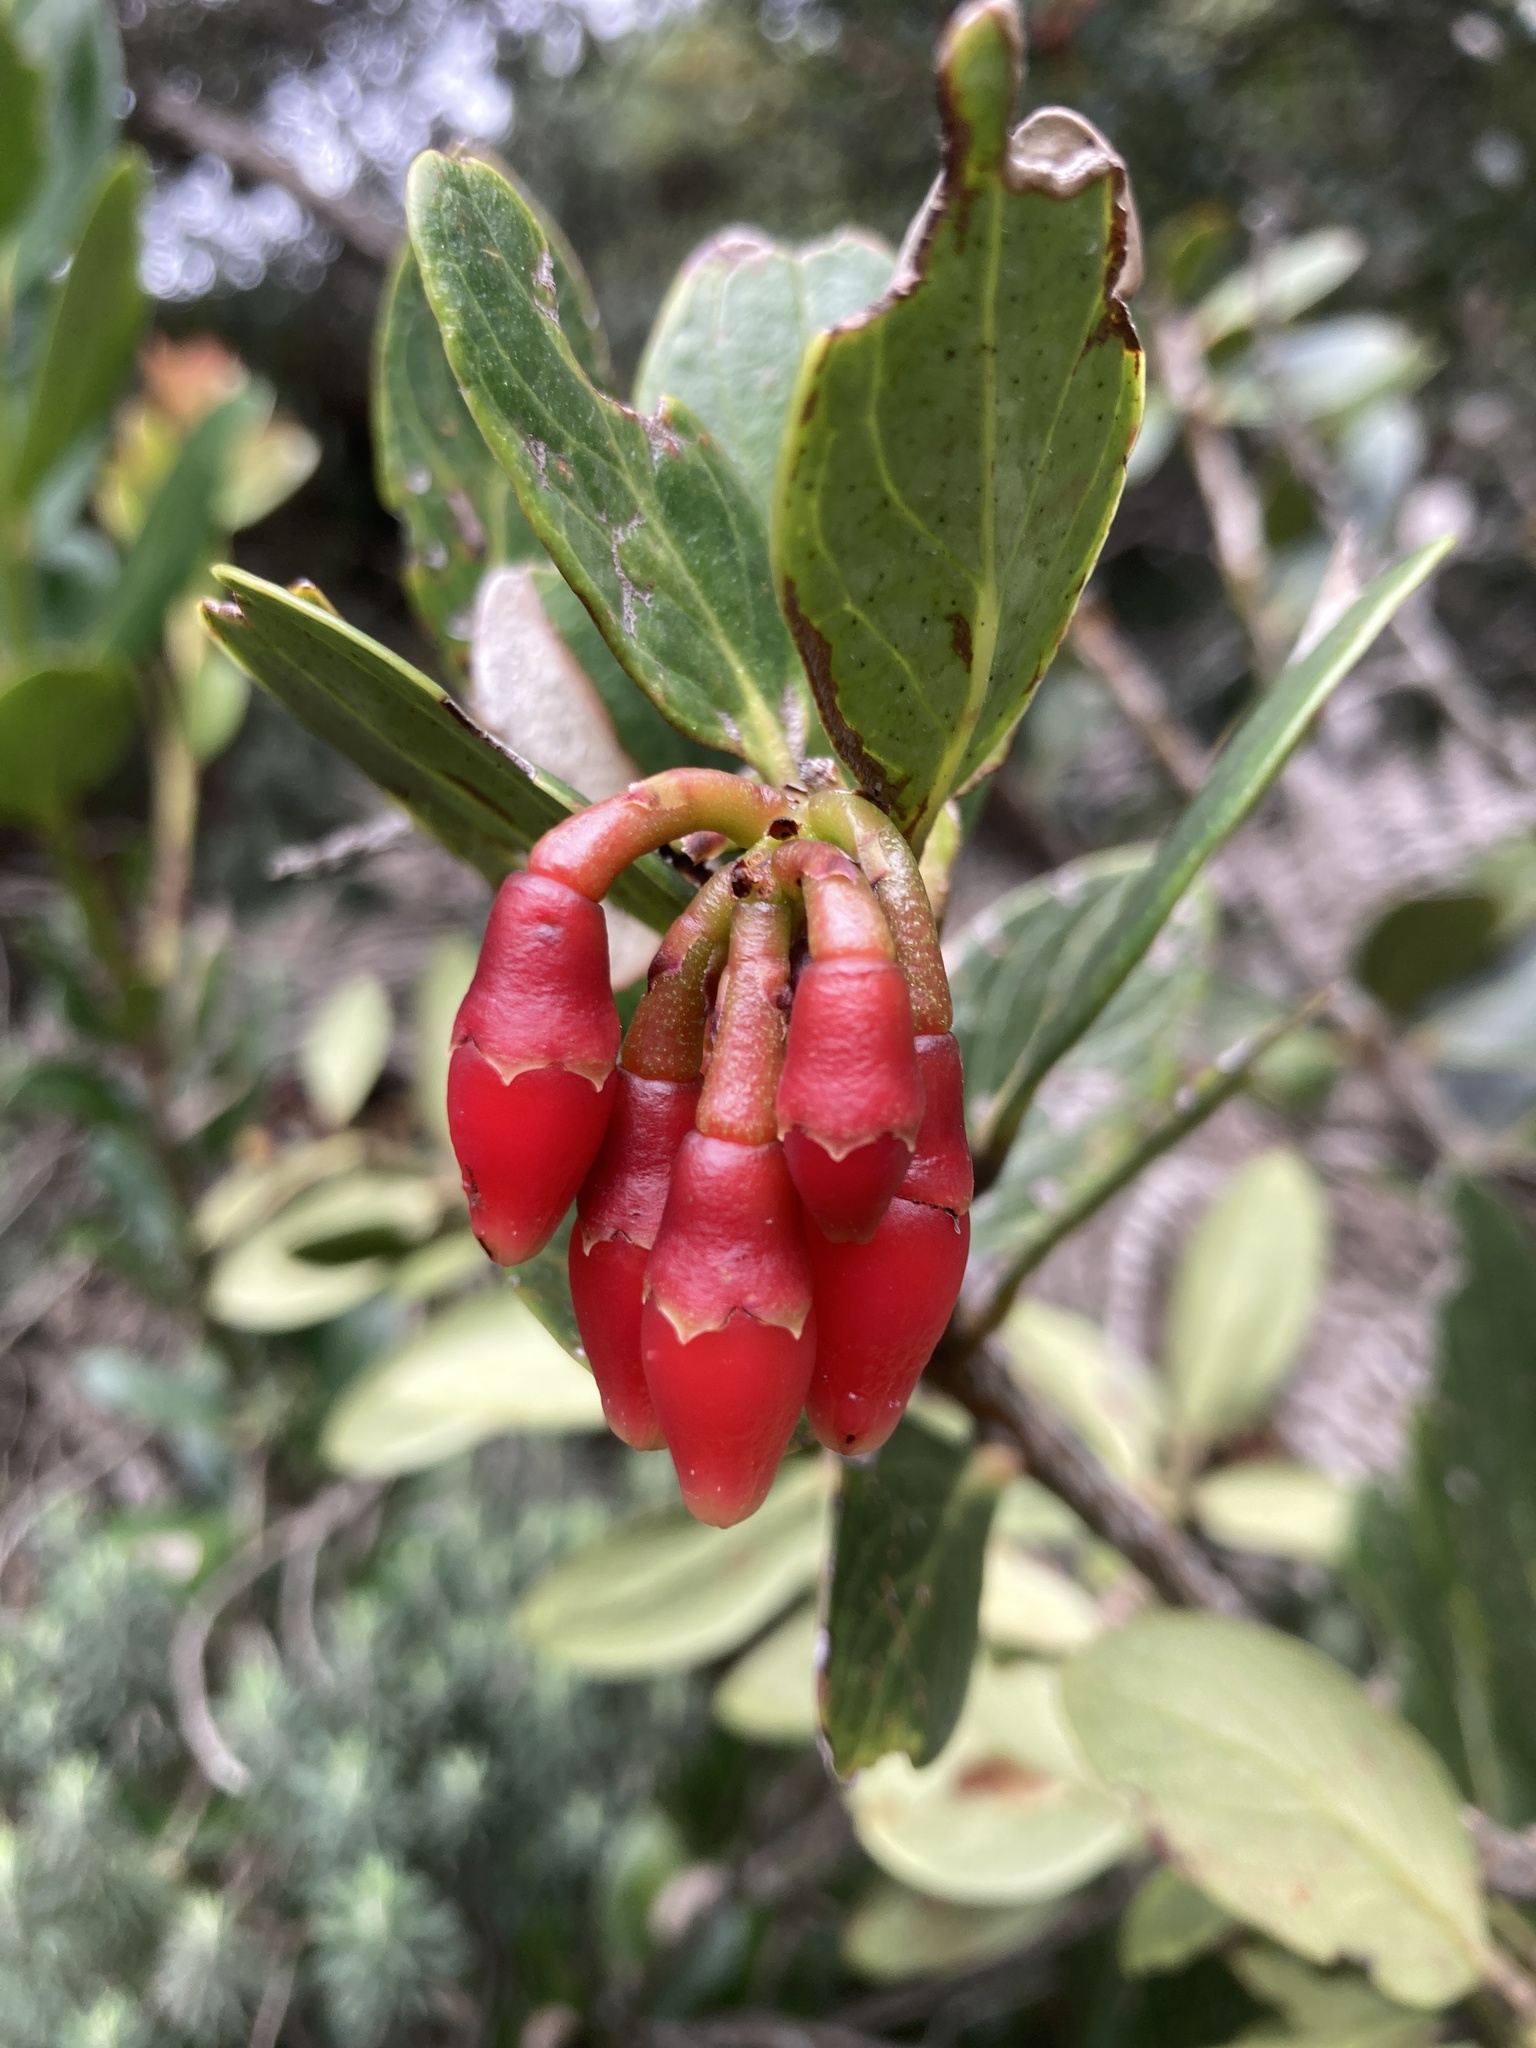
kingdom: Plantae
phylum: Tracheophyta
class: Magnoliopsida
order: Ericales
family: Ericaceae
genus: Macleania
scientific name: Macleania rupestris
